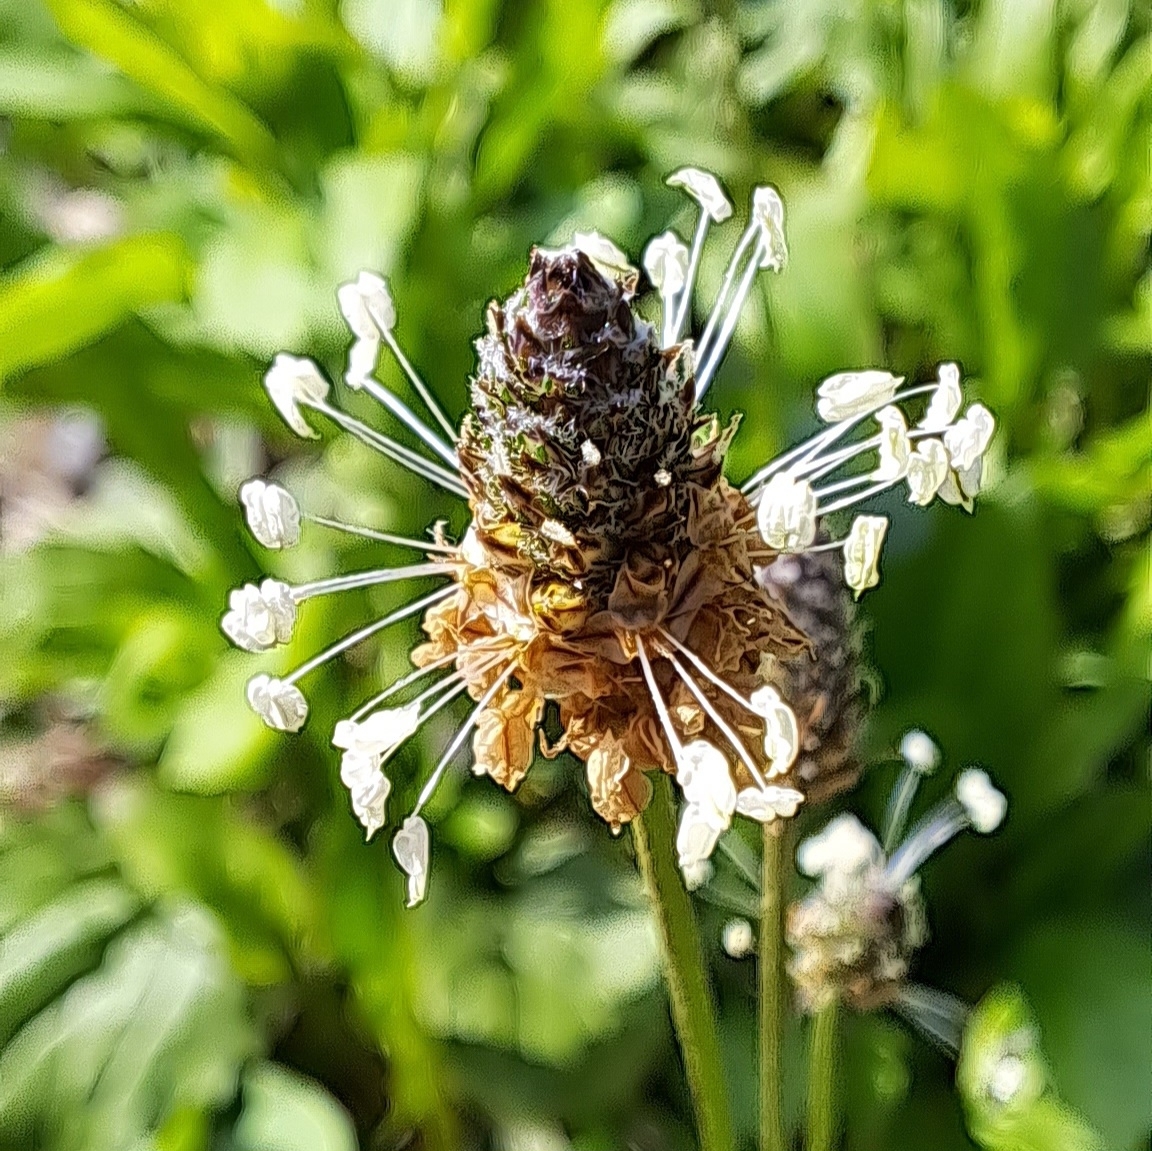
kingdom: Plantae
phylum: Tracheophyta
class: Magnoliopsida
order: Lamiales
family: Plantaginaceae
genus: Plantago
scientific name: Plantago lanceolata
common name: Ribwort plantain
